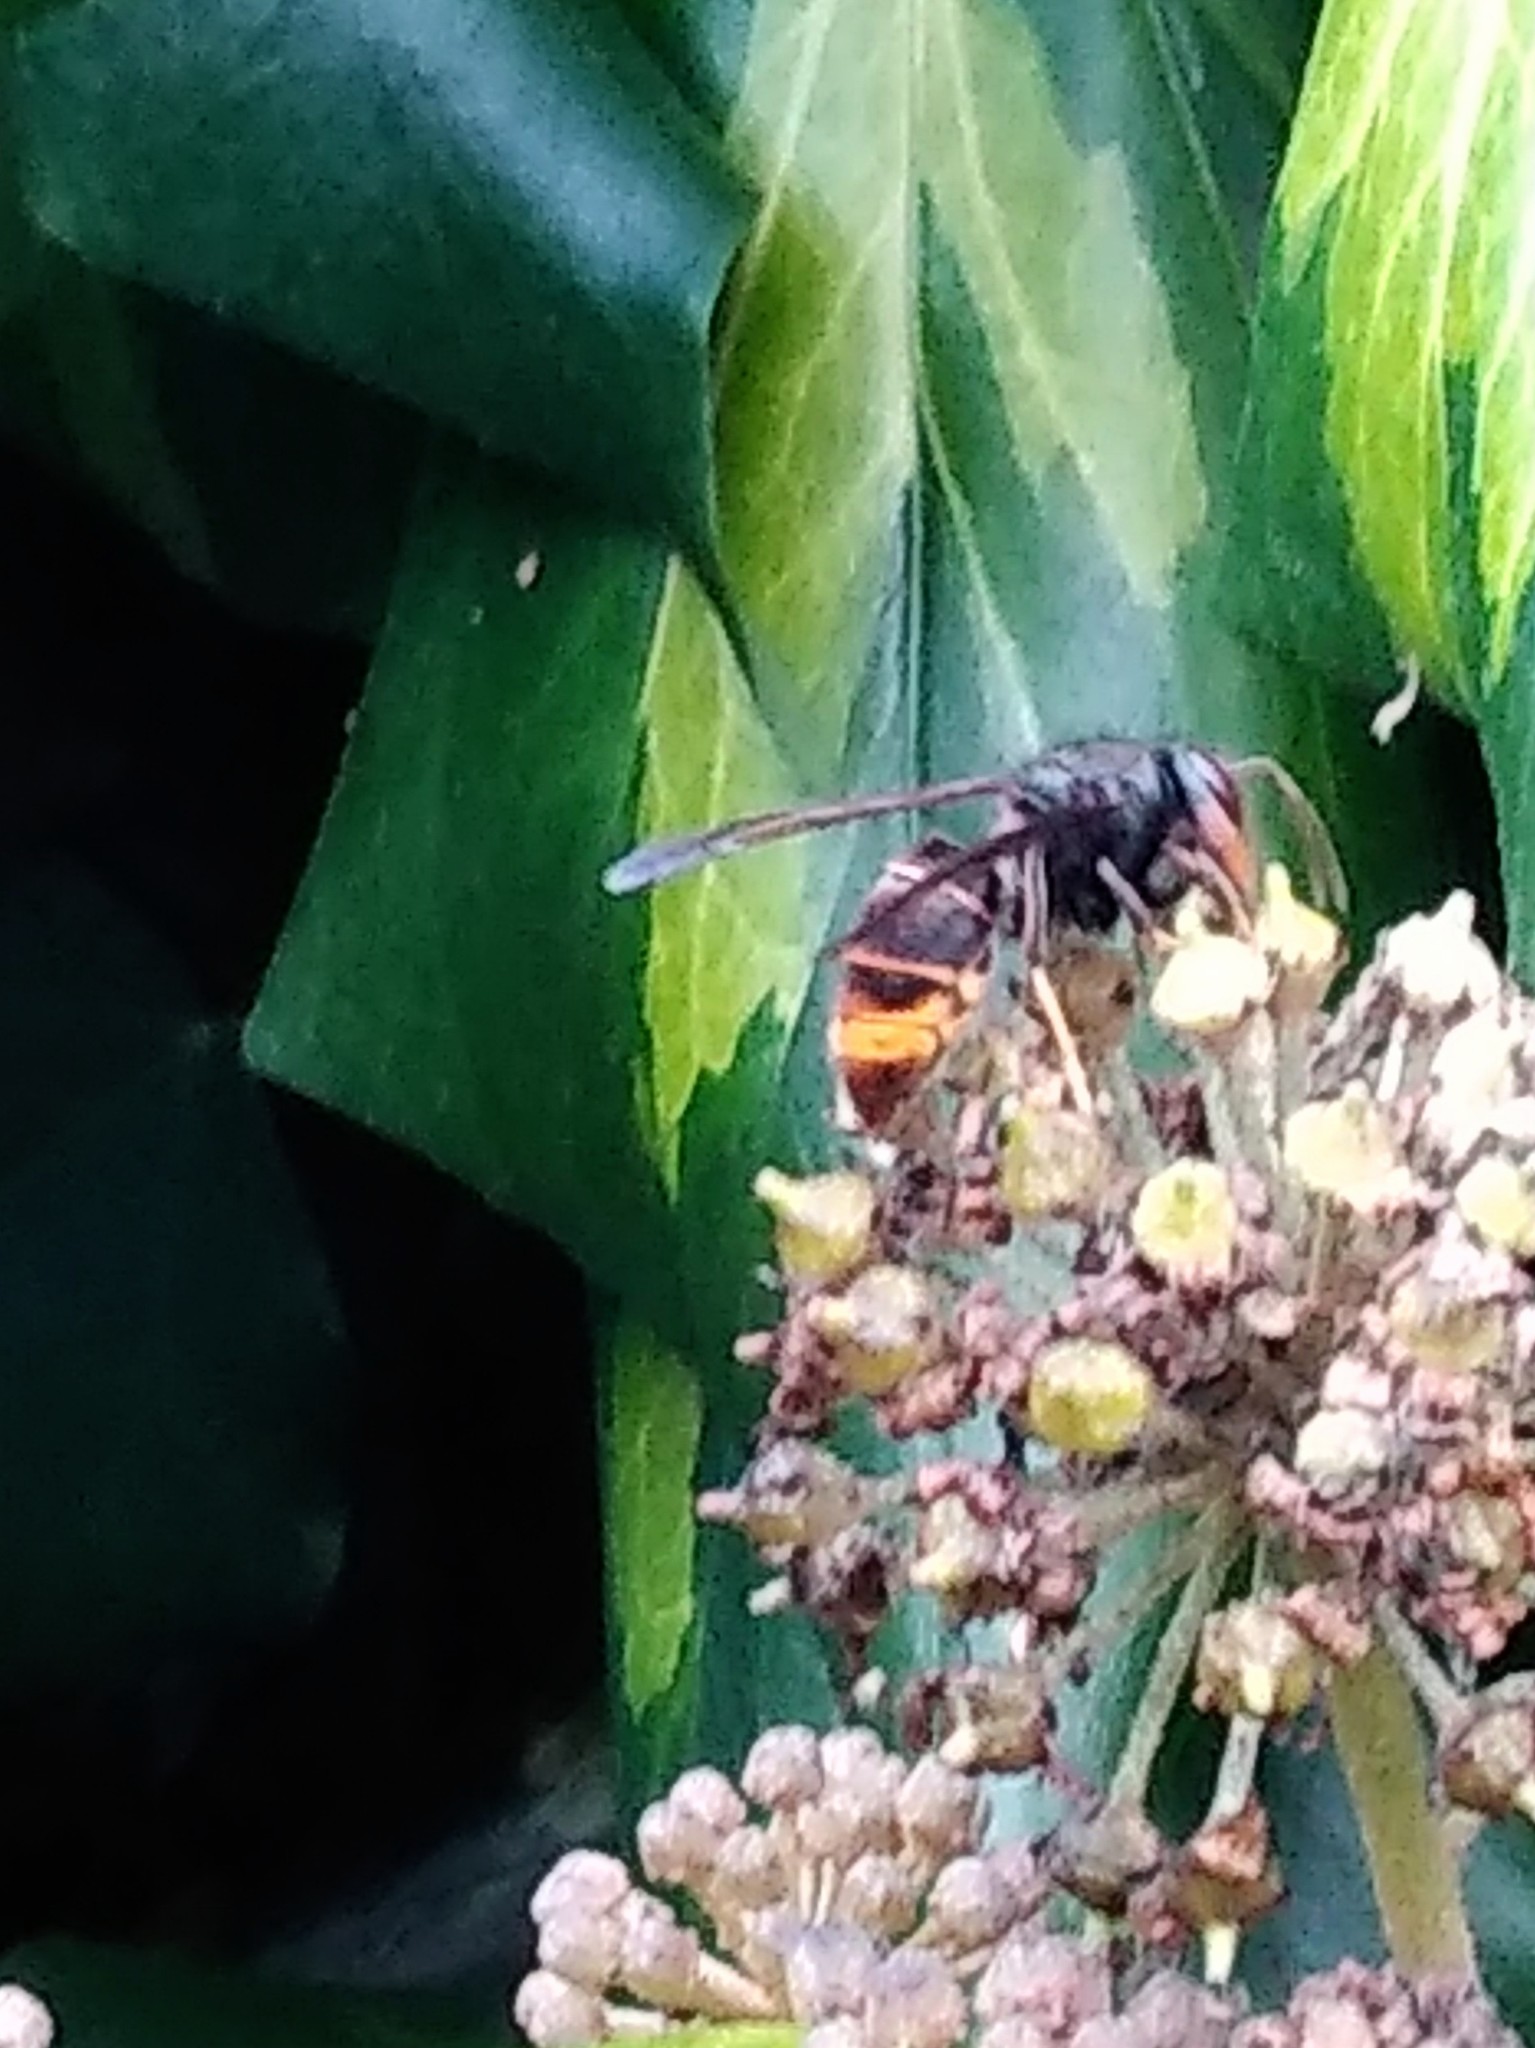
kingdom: Animalia
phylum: Arthropoda
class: Insecta
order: Hymenoptera
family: Vespidae
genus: Vespa
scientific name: Vespa velutina
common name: Asian hornet
